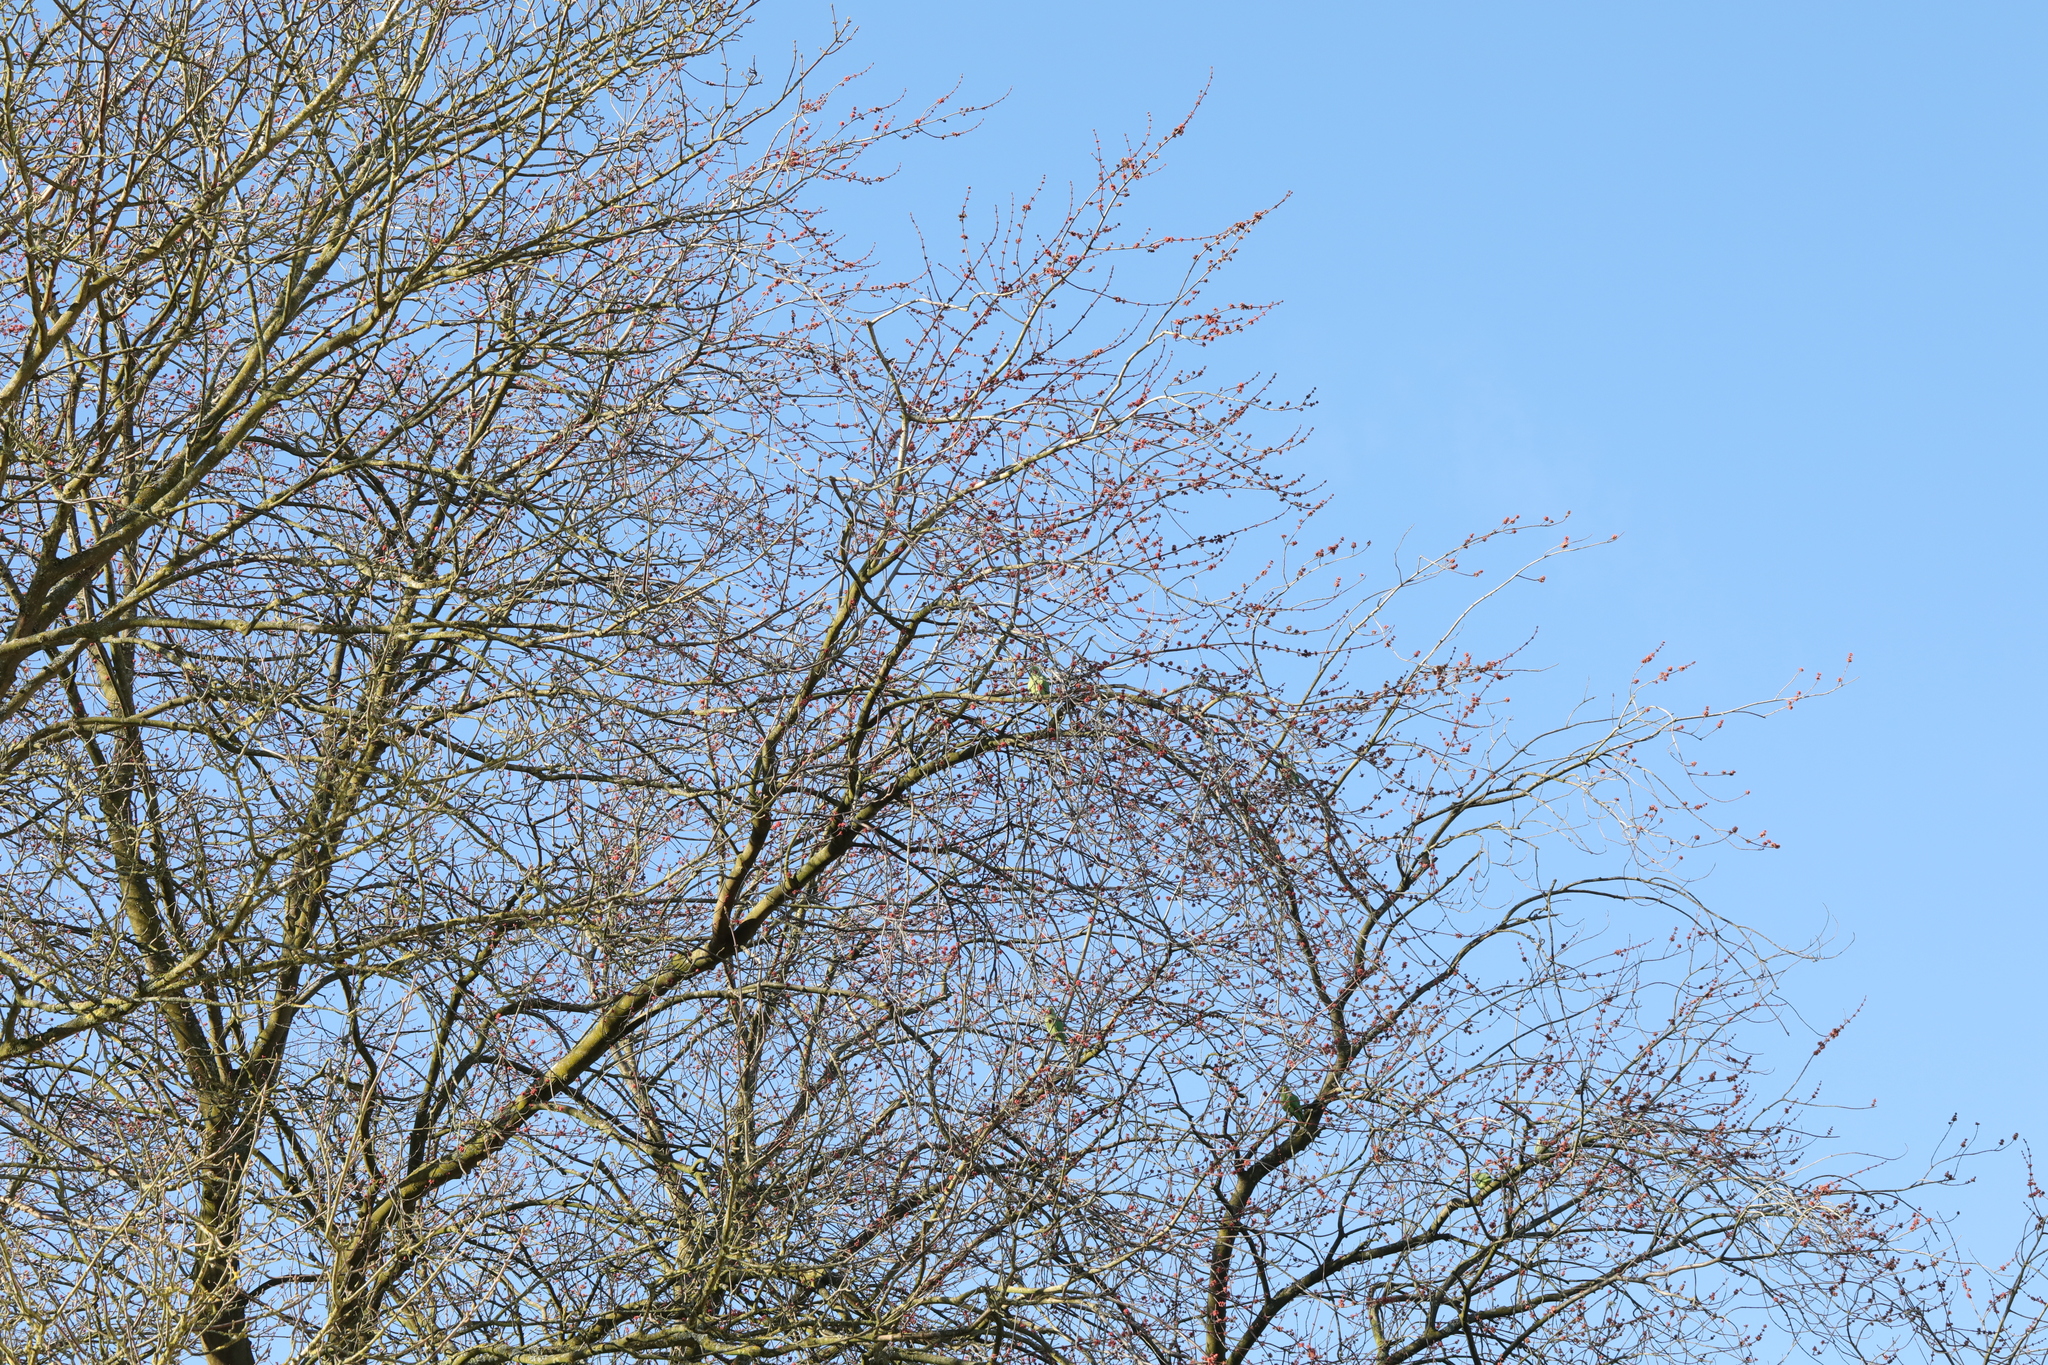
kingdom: Animalia
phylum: Chordata
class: Aves
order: Psittaciformes
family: Psittacidae
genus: Psittacula
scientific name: Psittacula krameri
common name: Rose-ringed parakeet
